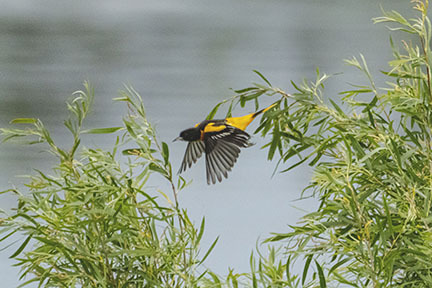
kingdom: Animalia
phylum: Chordata
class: Aves
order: Passeriformes
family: Icteridae
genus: Icterus
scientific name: Icterus galbula
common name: Baltimore oriole
